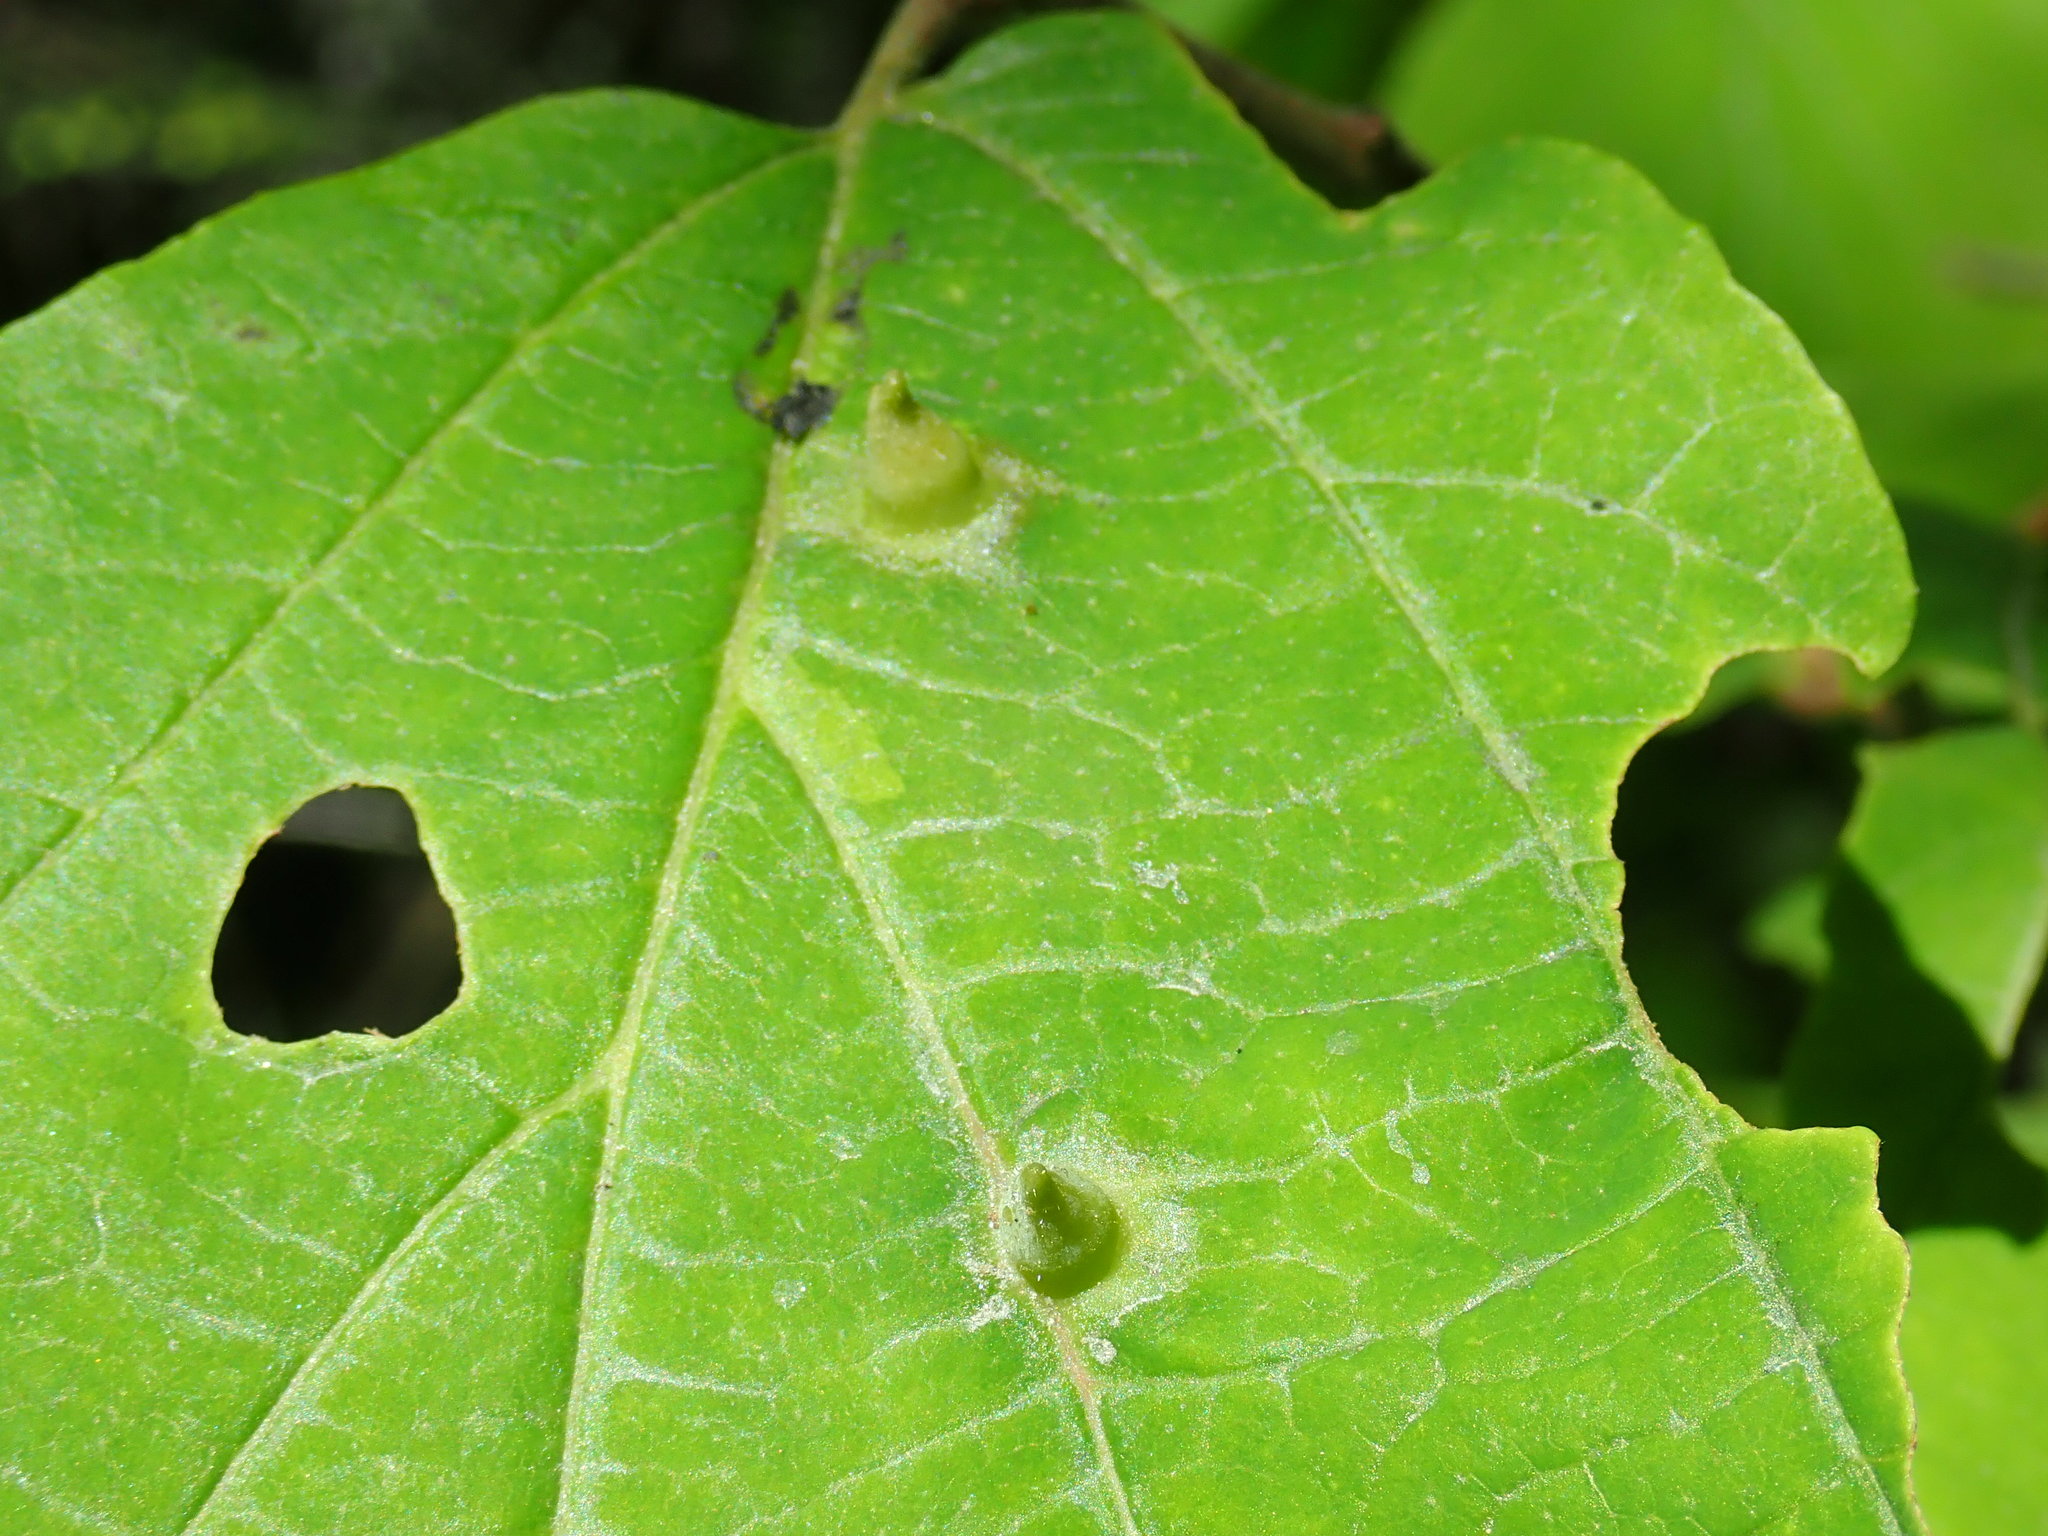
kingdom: Animalia
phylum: Arthropoda
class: Insecta
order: Hemiptera
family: Aphididae
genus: Hormaphis
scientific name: Hormaphis hamamelidis
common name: Witch-hazel cone gall aphid
